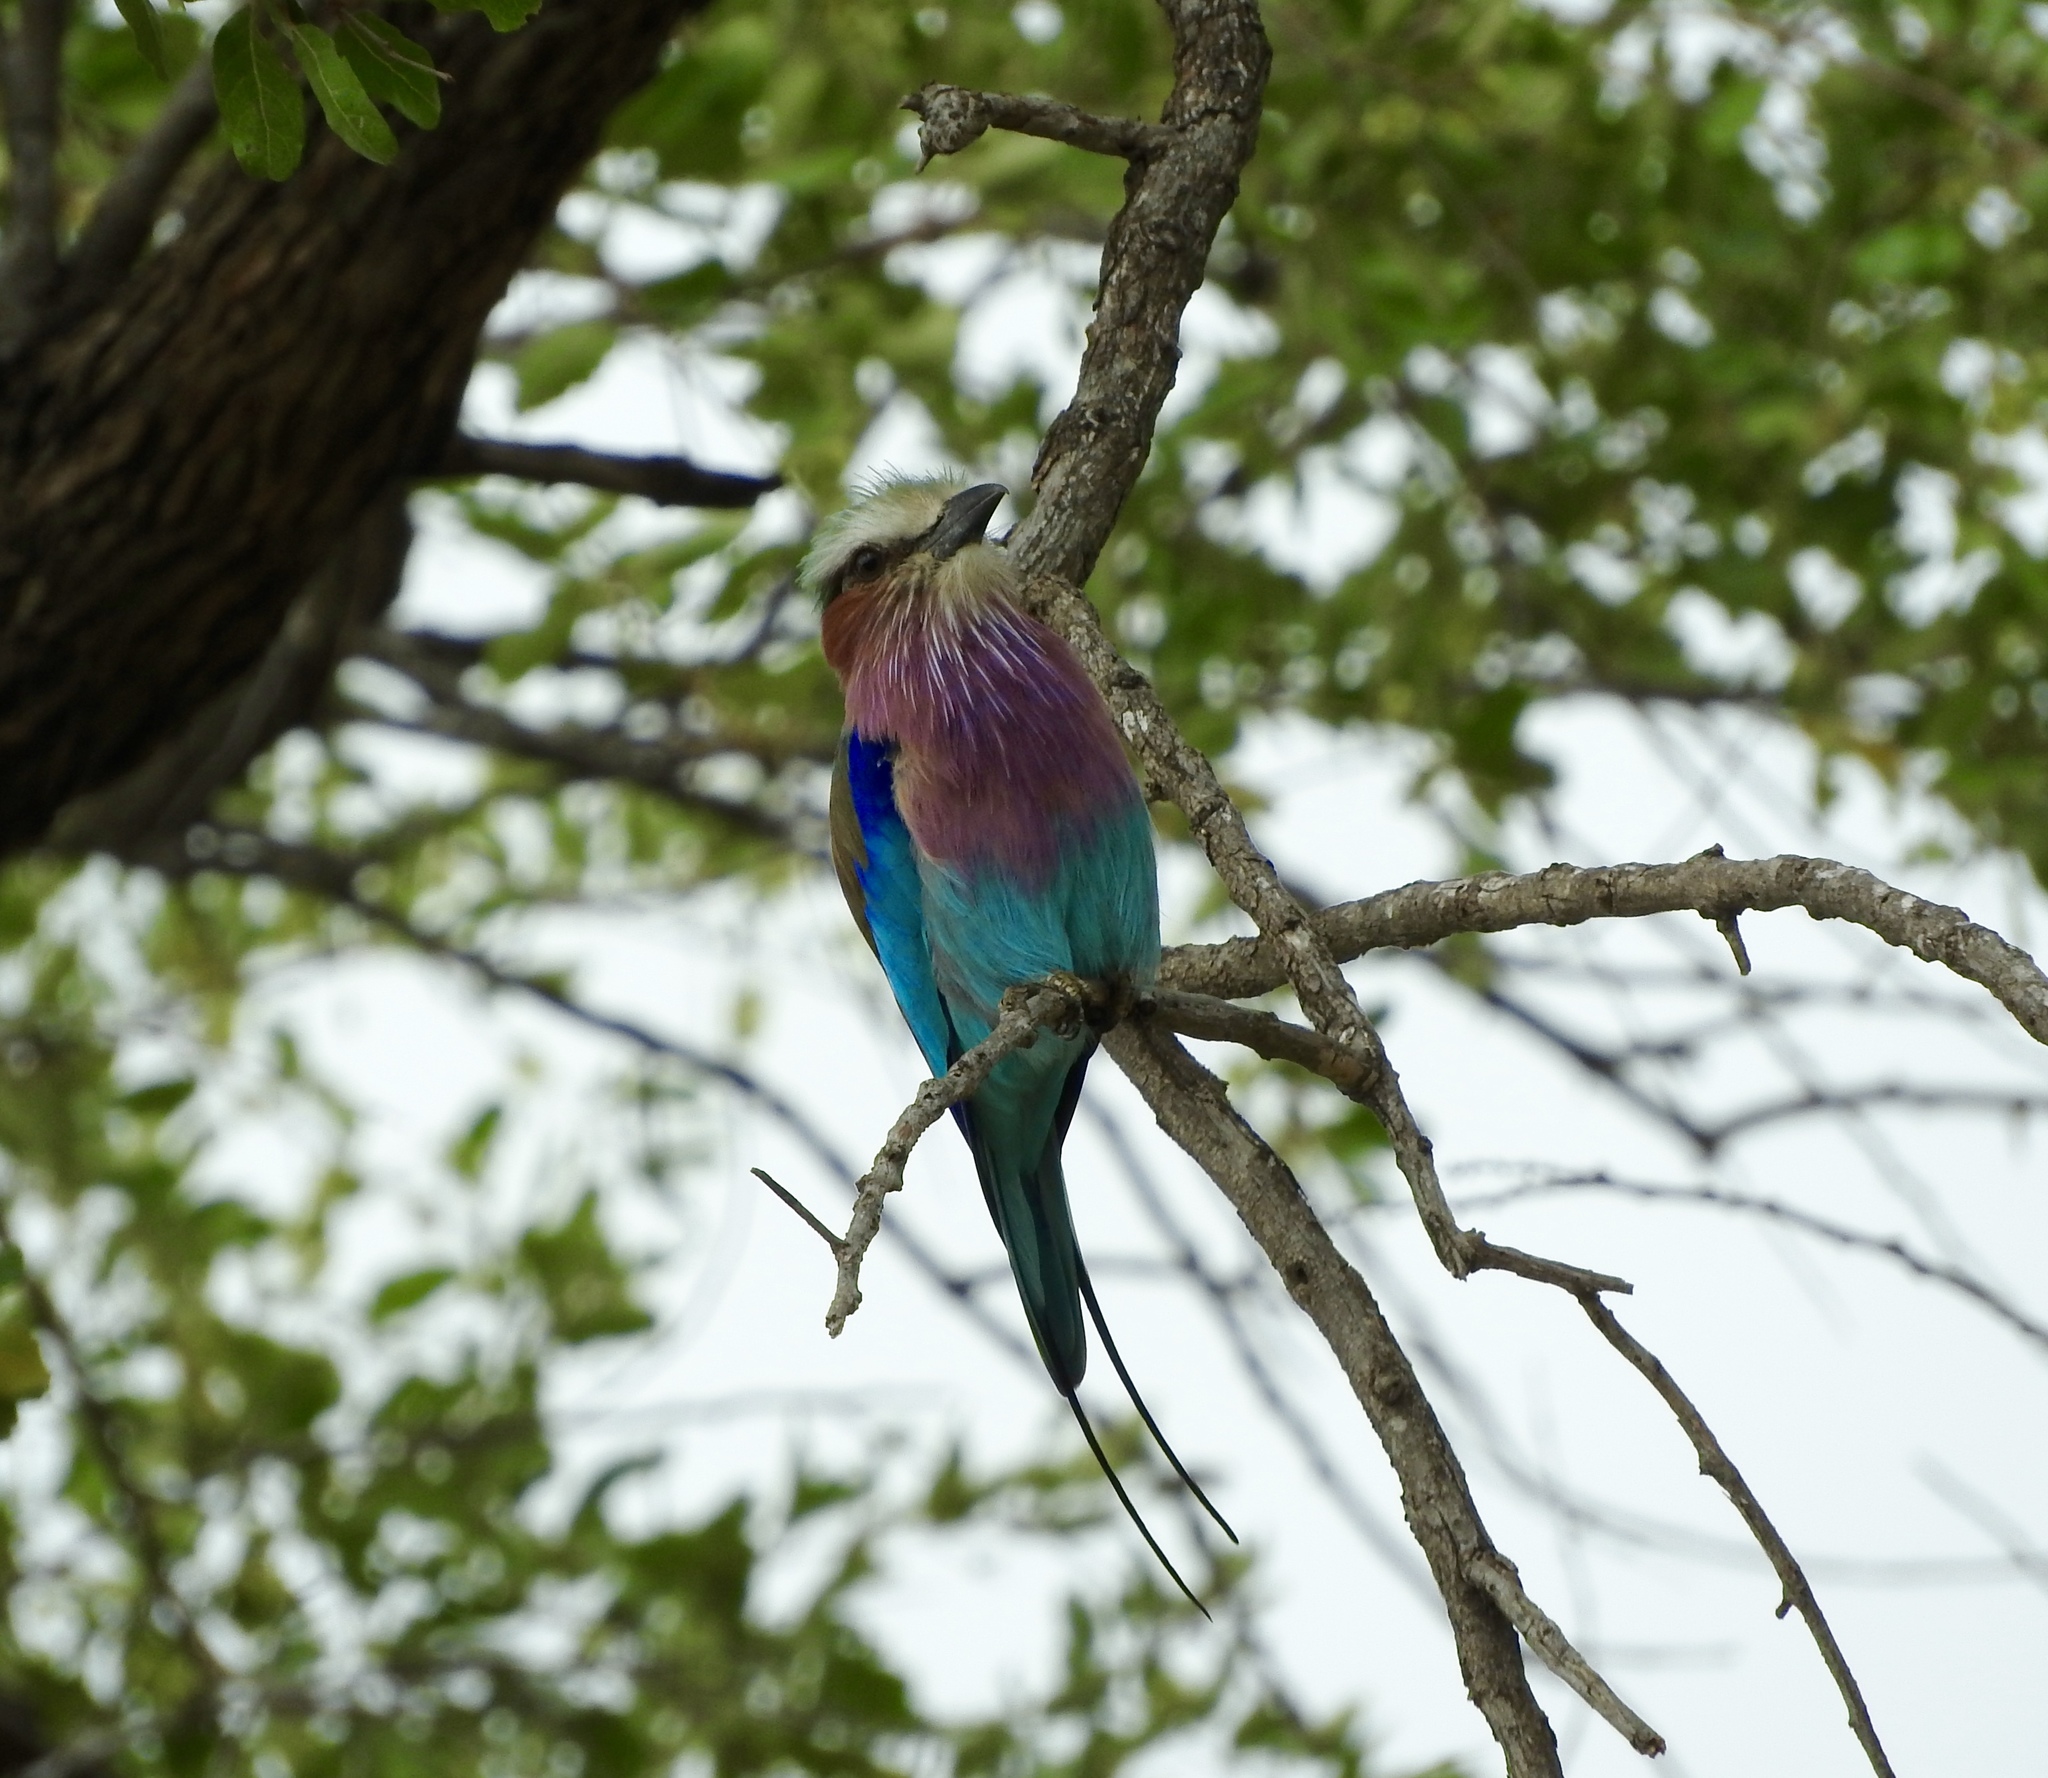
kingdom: Animalia
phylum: Chordata
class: Aves
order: Coraciiformes
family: Coraciidae
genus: Coracias
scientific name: Coracias caudatus
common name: Lilac-breasted roller
